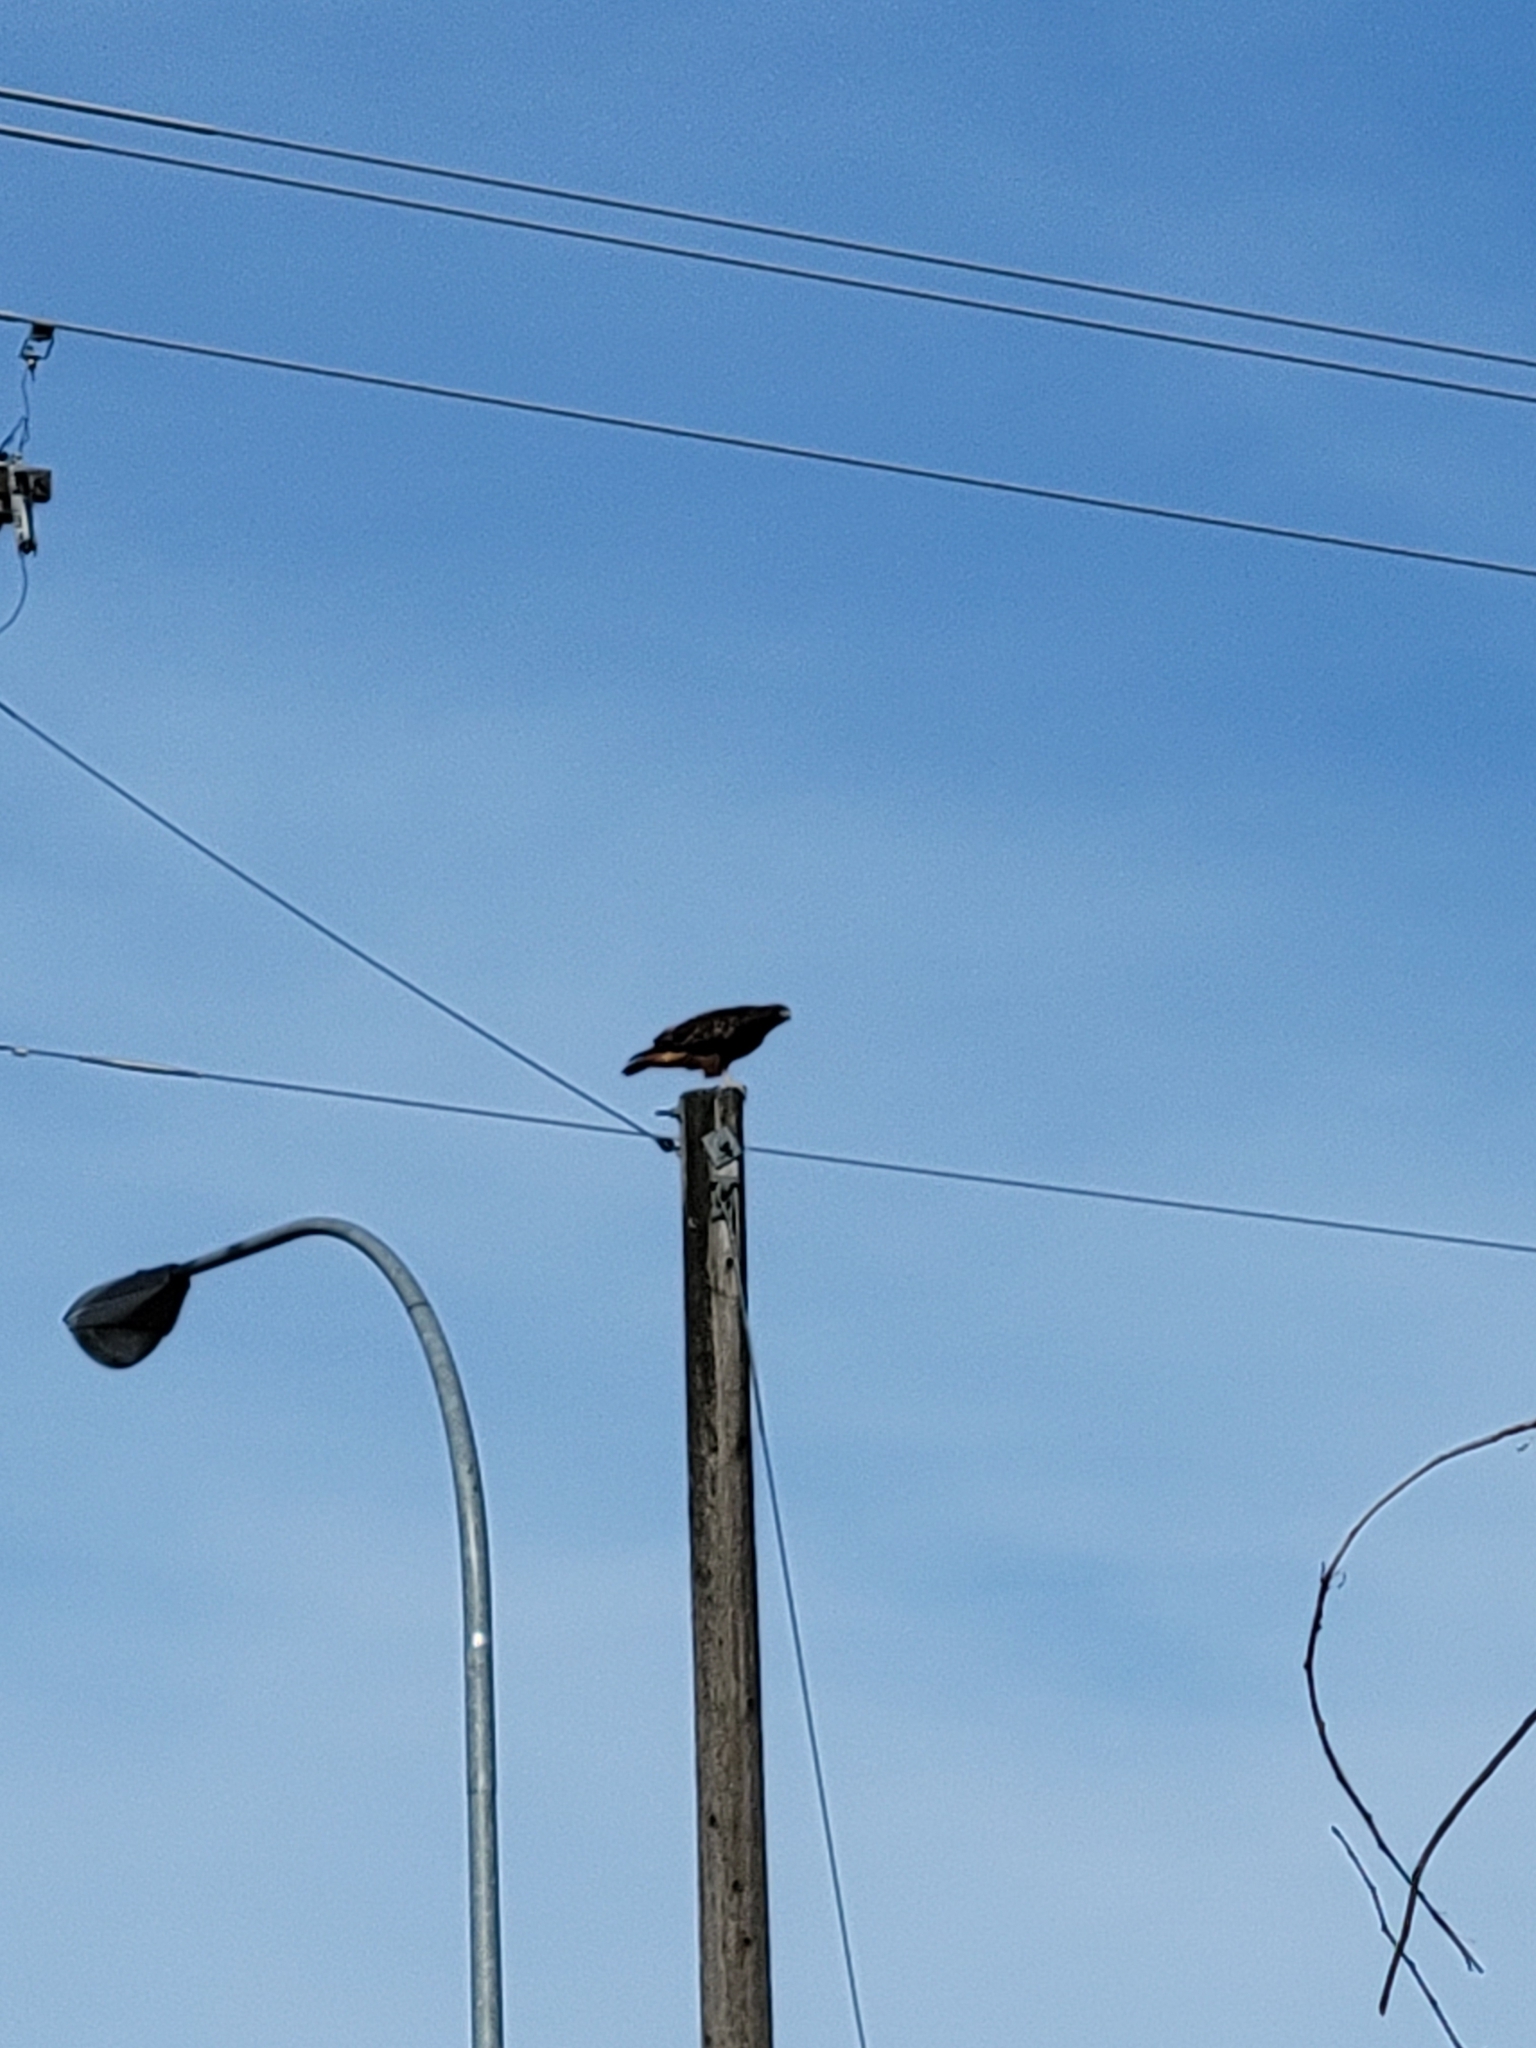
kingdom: Animalia
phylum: Chordata
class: Aves
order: Accipitriformes
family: Accipitridae
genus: Buteo
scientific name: Buteo jamaicensis
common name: Red-tailed hawk
